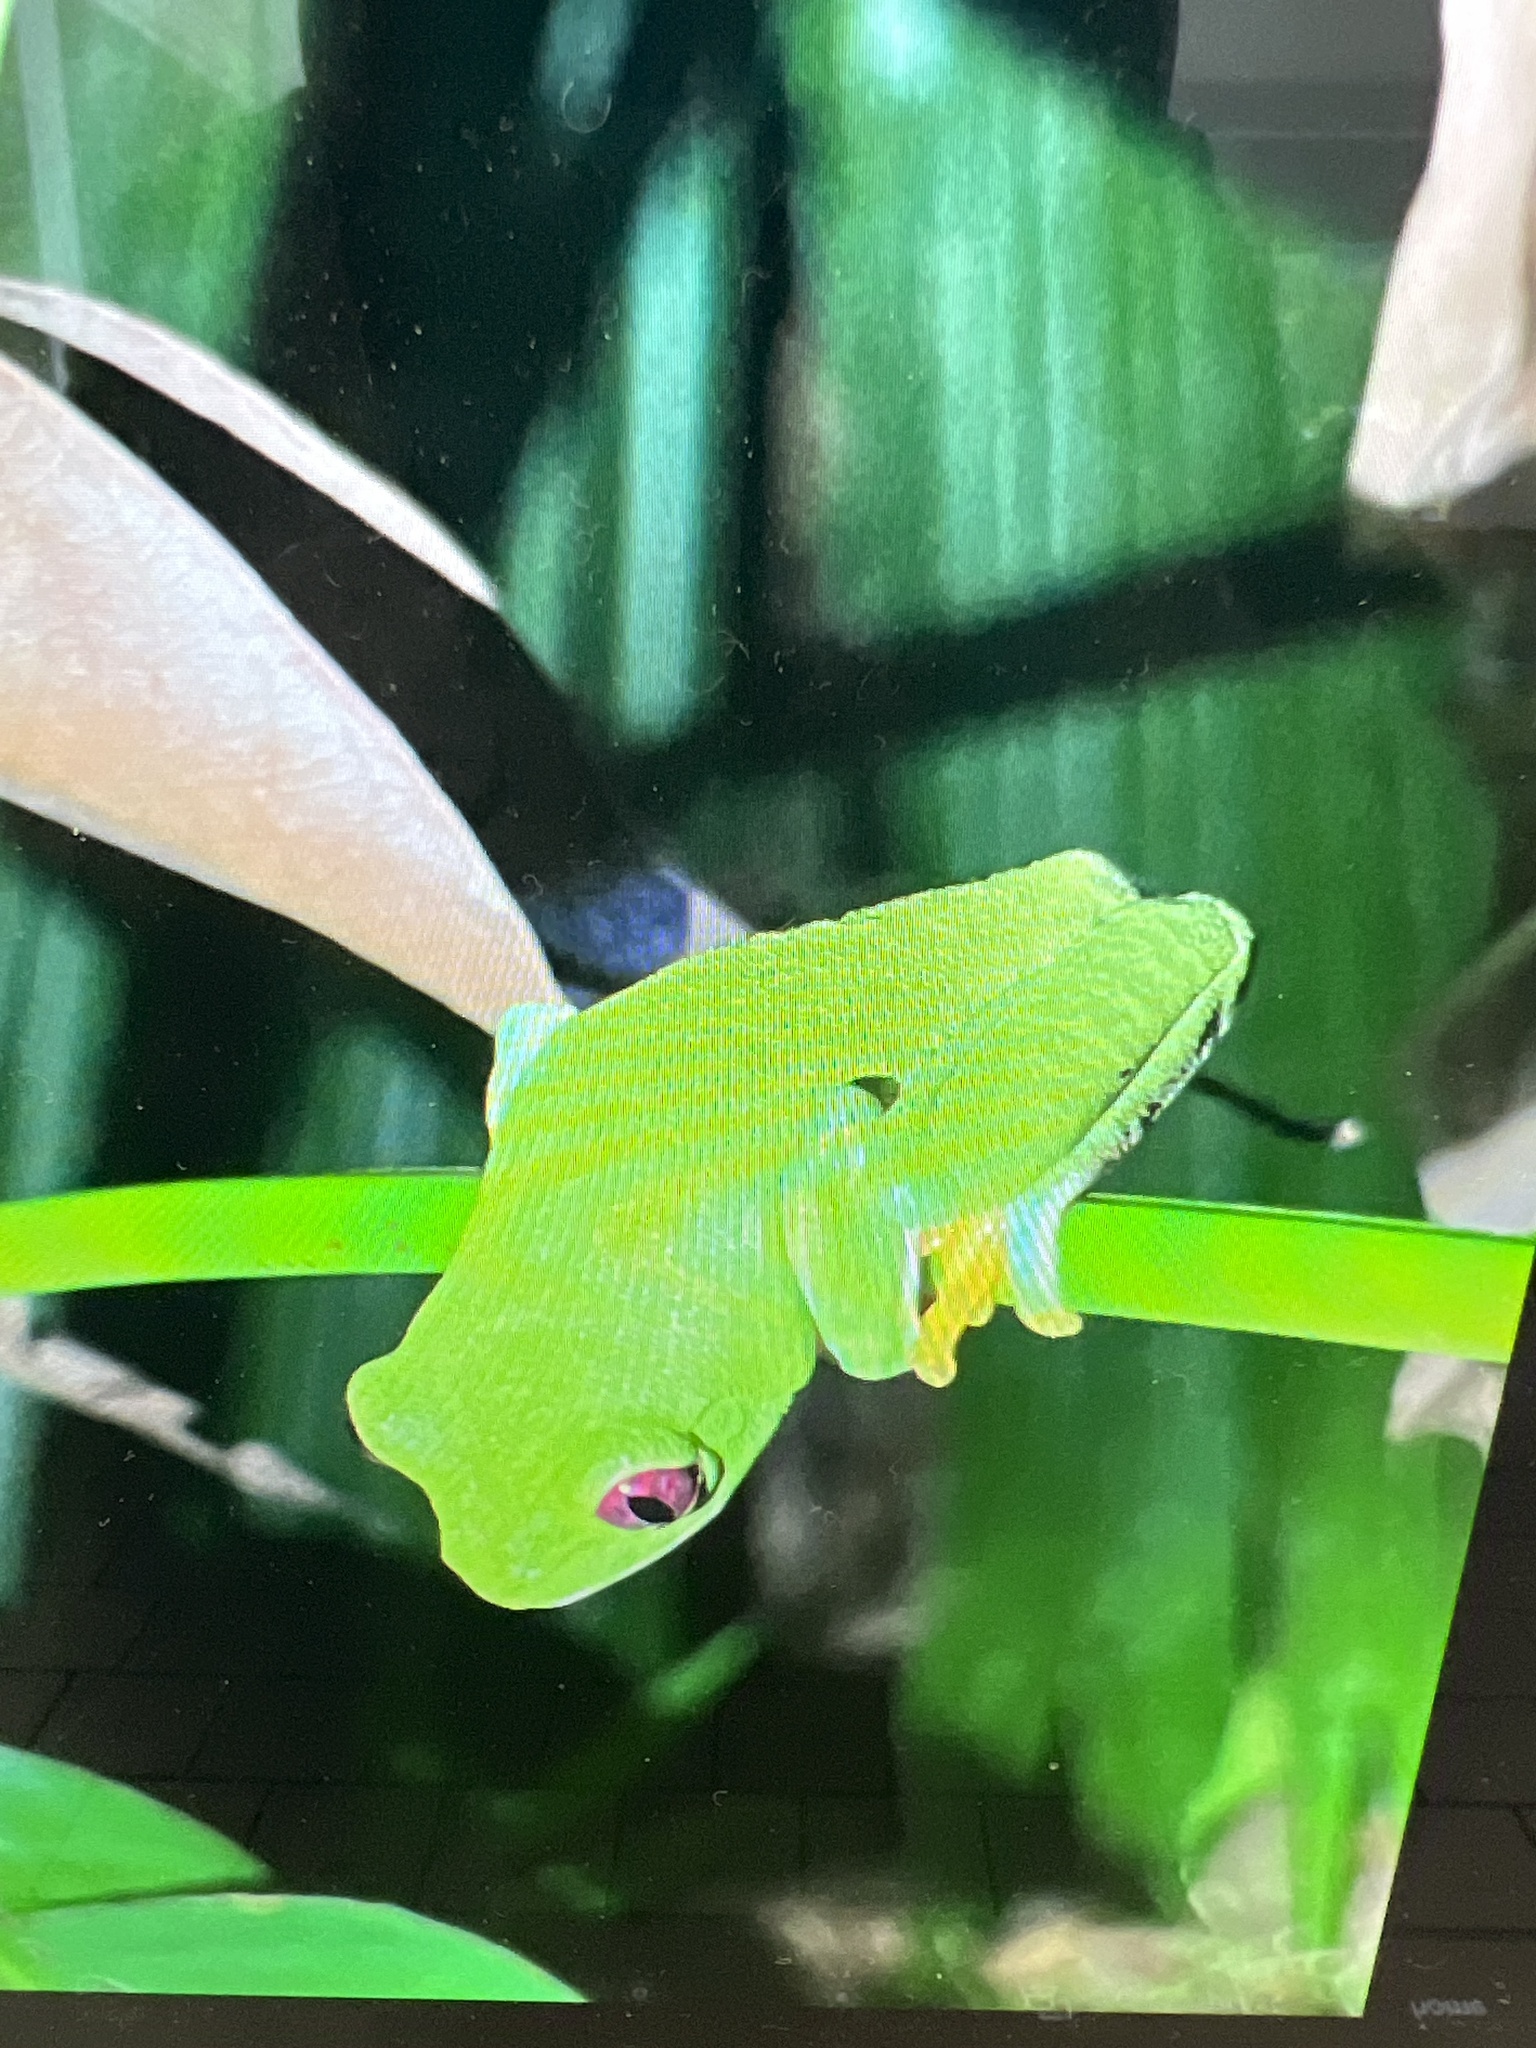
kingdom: Animalia
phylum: Chordata
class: Amphibia
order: Anura
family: Phyllomedusidae
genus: Agalychnis
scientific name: Agalychnis callidryas
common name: Red-eyed treefrog
